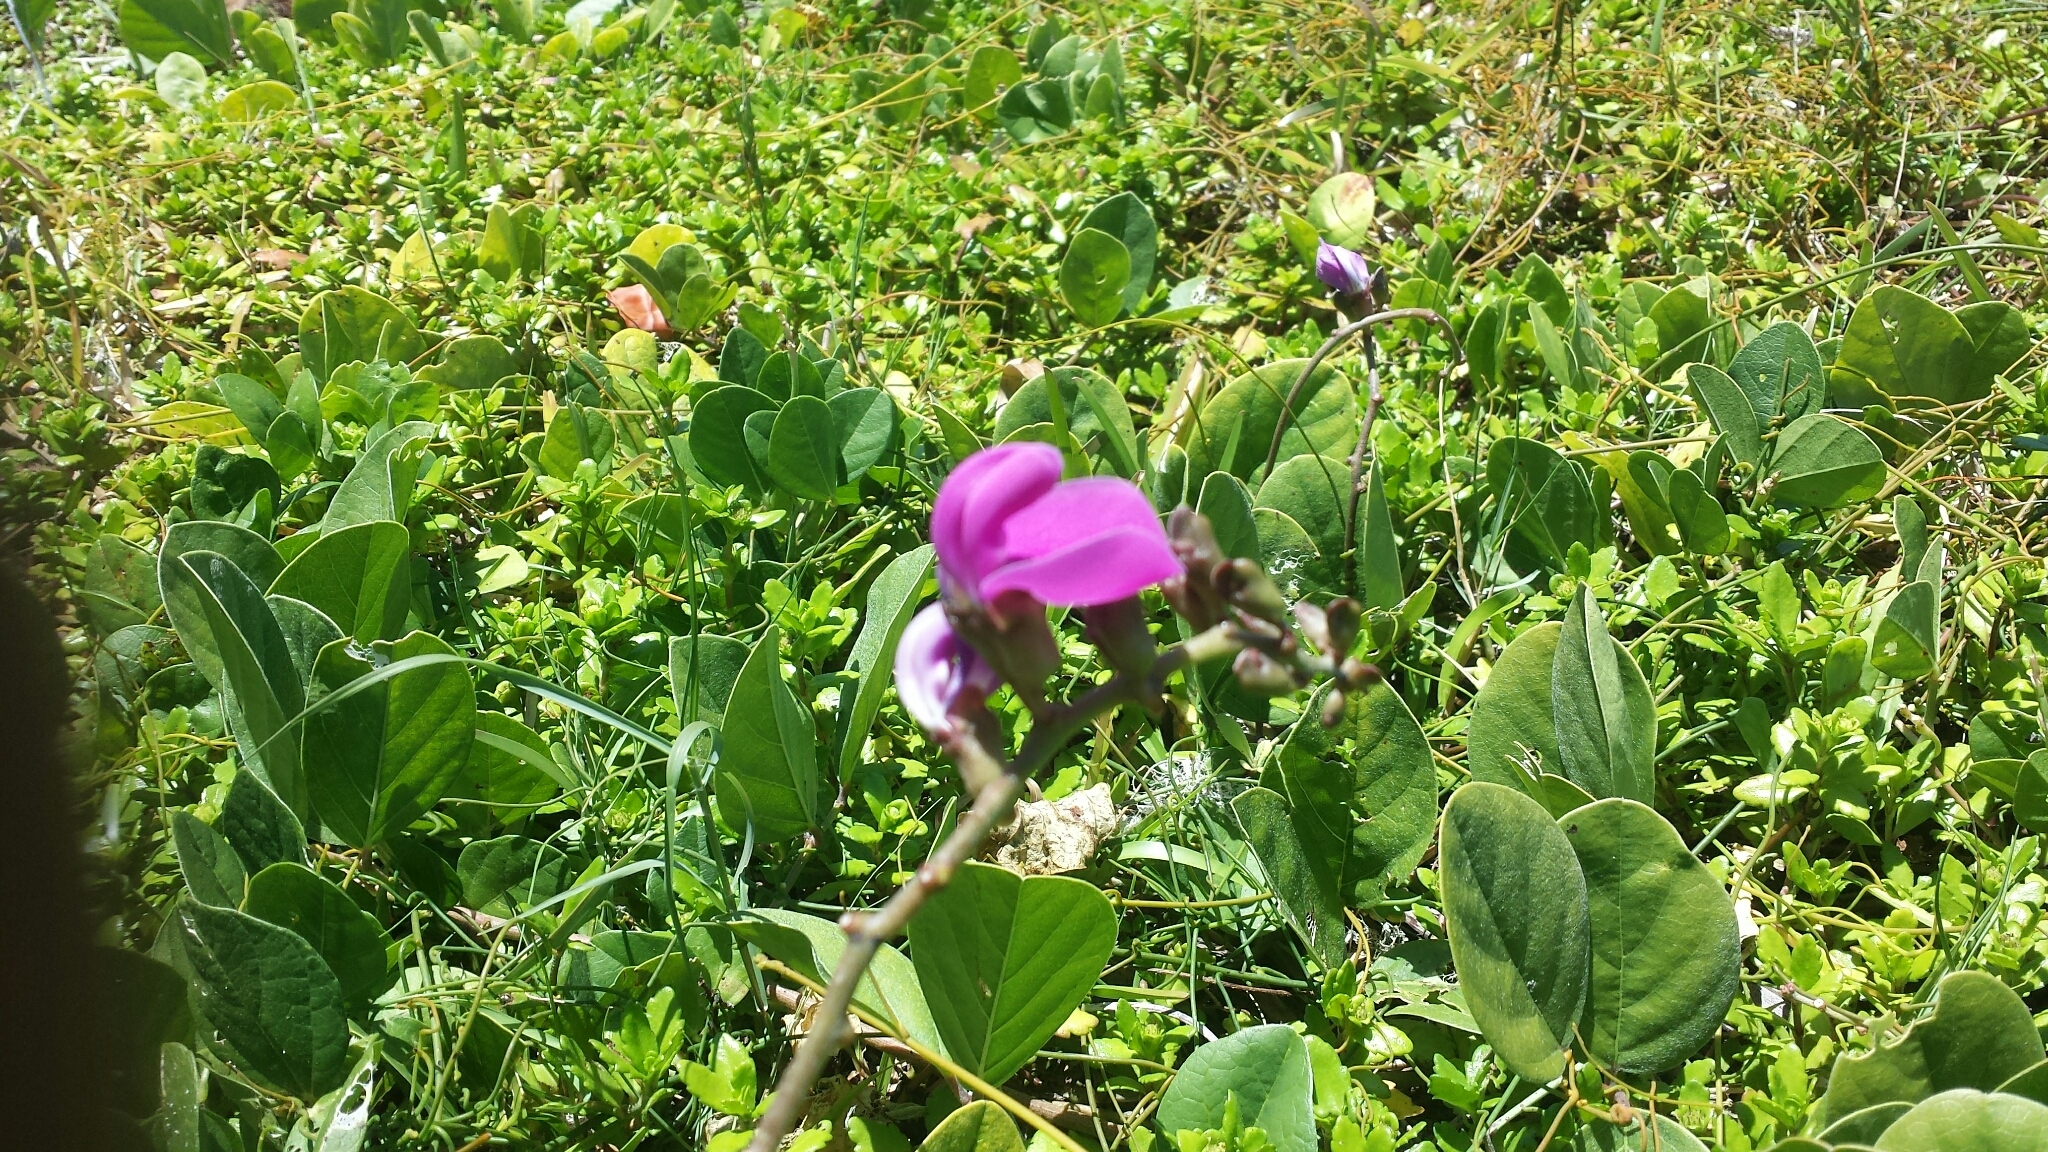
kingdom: Plantae
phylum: Tracheophyta
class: Magnoliopsida
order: Fabales
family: Fabaceae
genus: Canavalia
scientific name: Canavalia rosea
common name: Beach-bean
